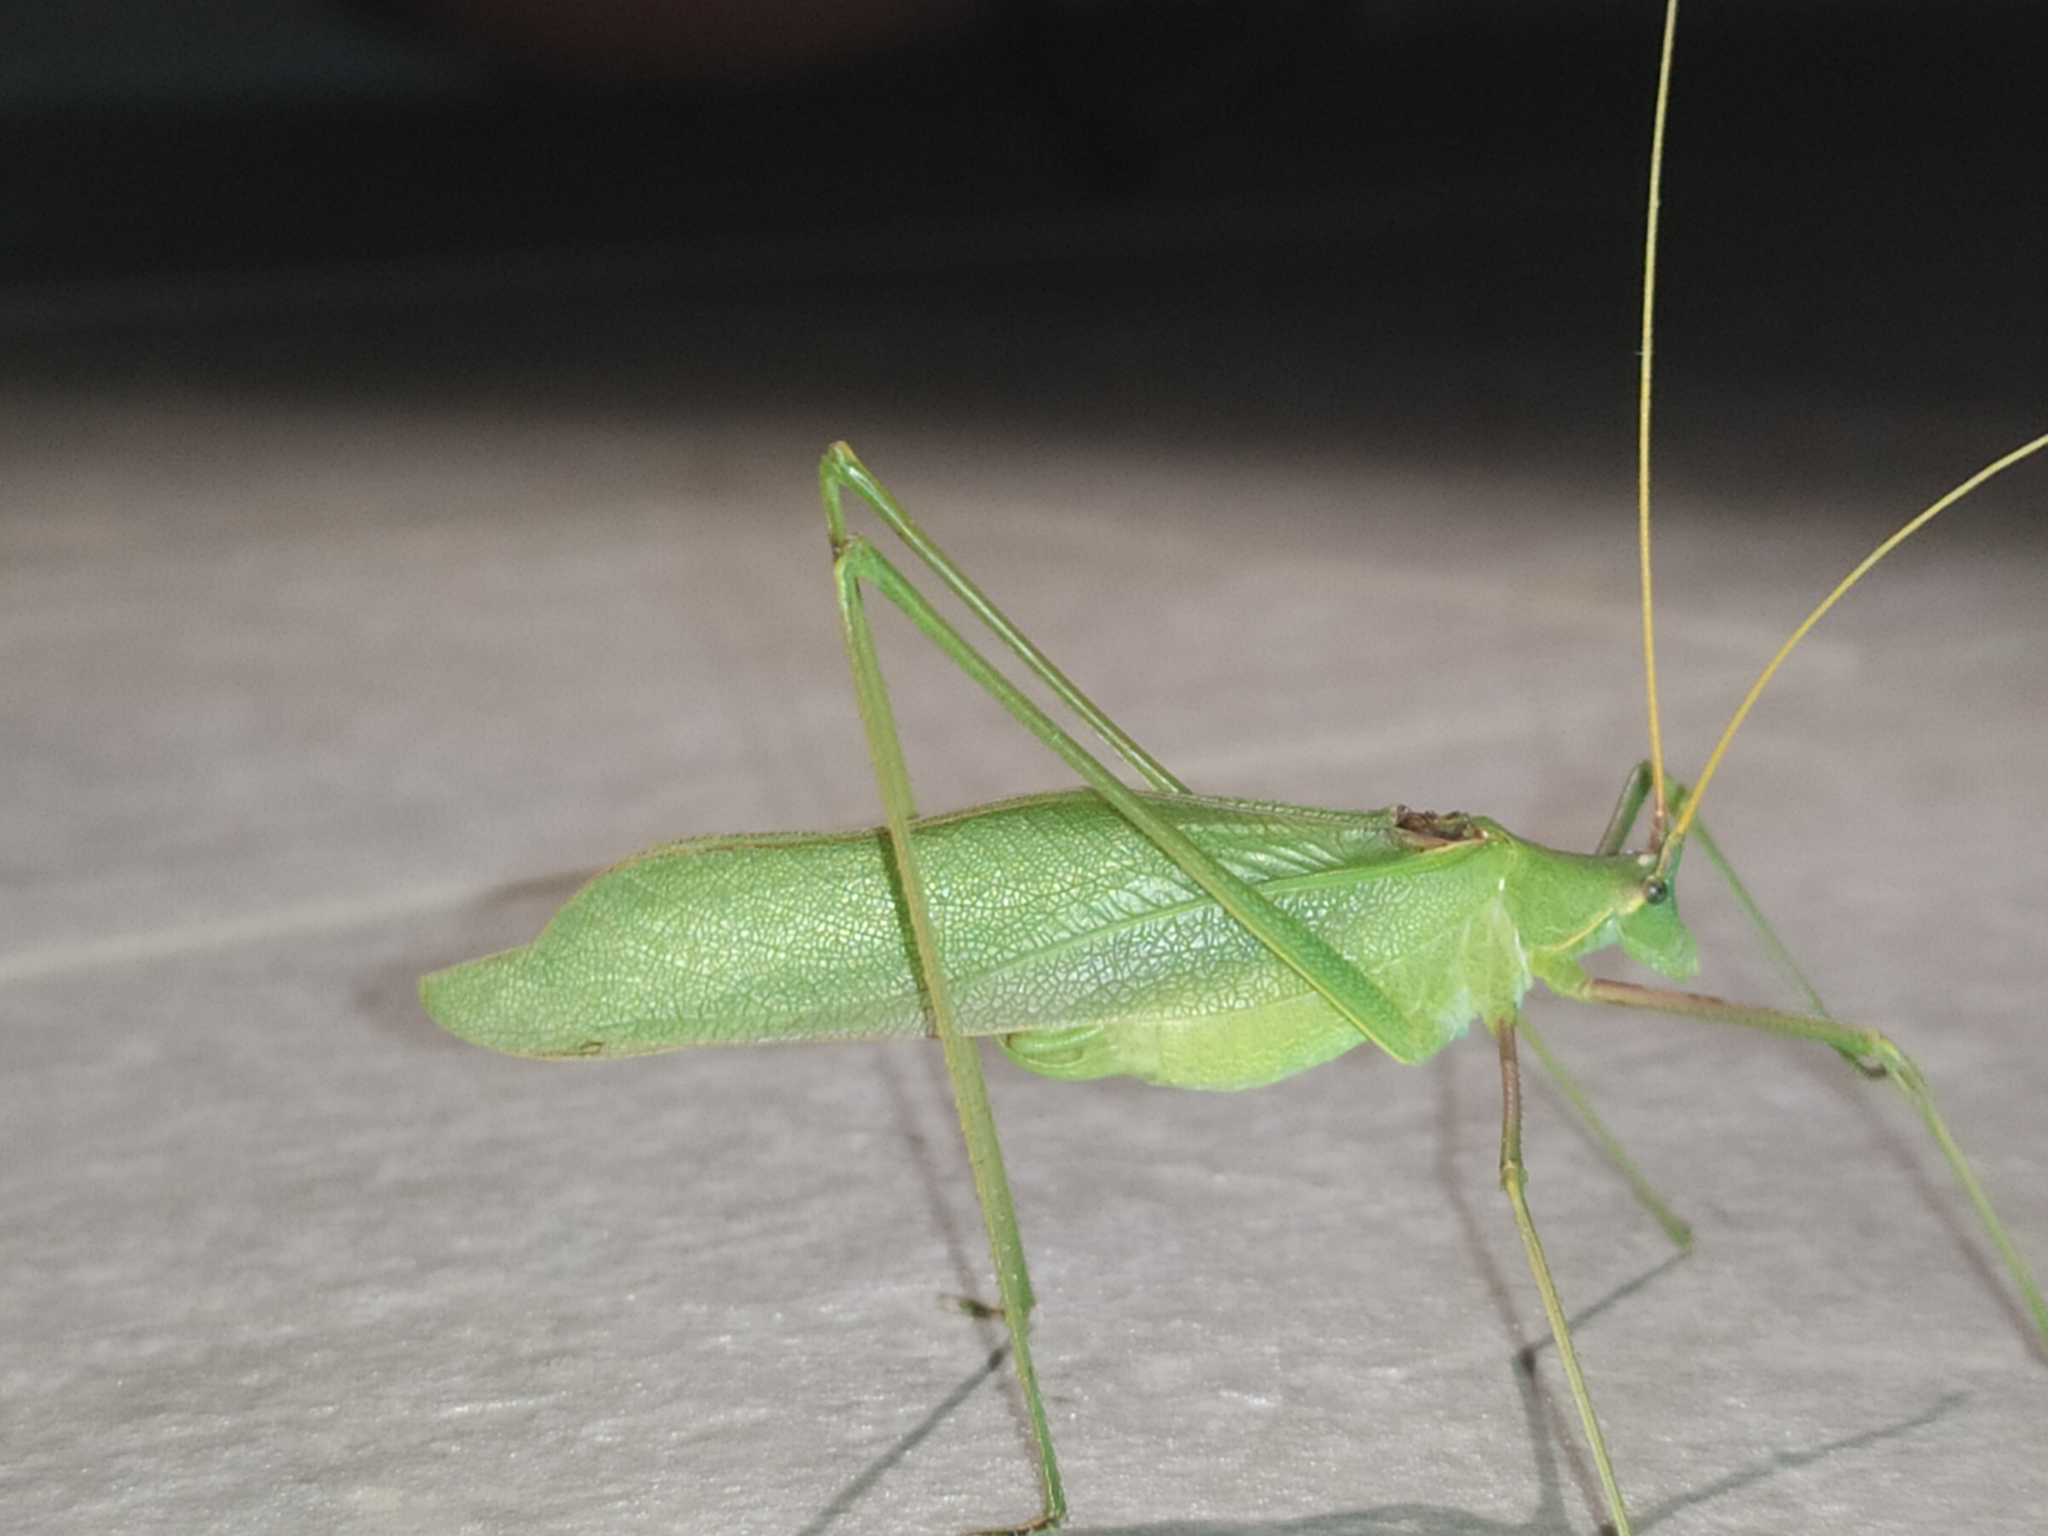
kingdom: Animalia
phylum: Arthropoda
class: Insecta
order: Orthoptera
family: Tettigoniidae
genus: Acrometopa
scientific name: Acrometopa macropoda
